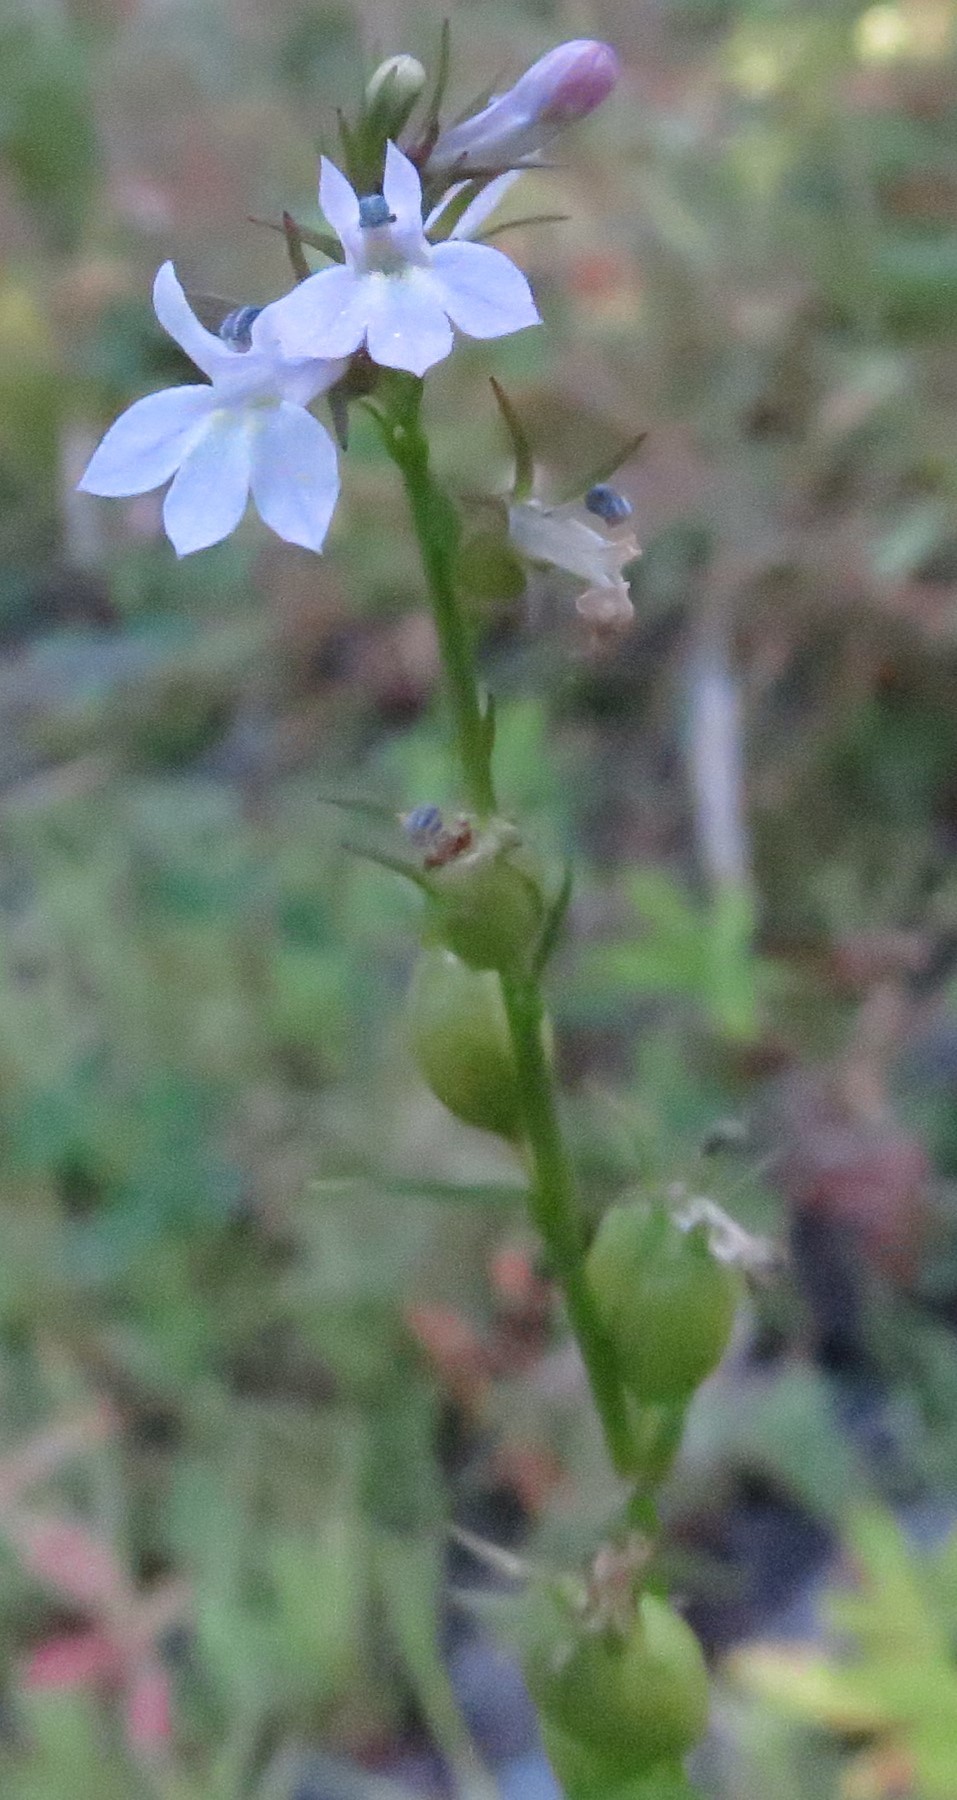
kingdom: Plantae
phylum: Tracheophyta
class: Magnoliopsida
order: Asterales
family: Campanulaceae
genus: Lobelia
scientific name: Lobelia inflata
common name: Indian tobacco
